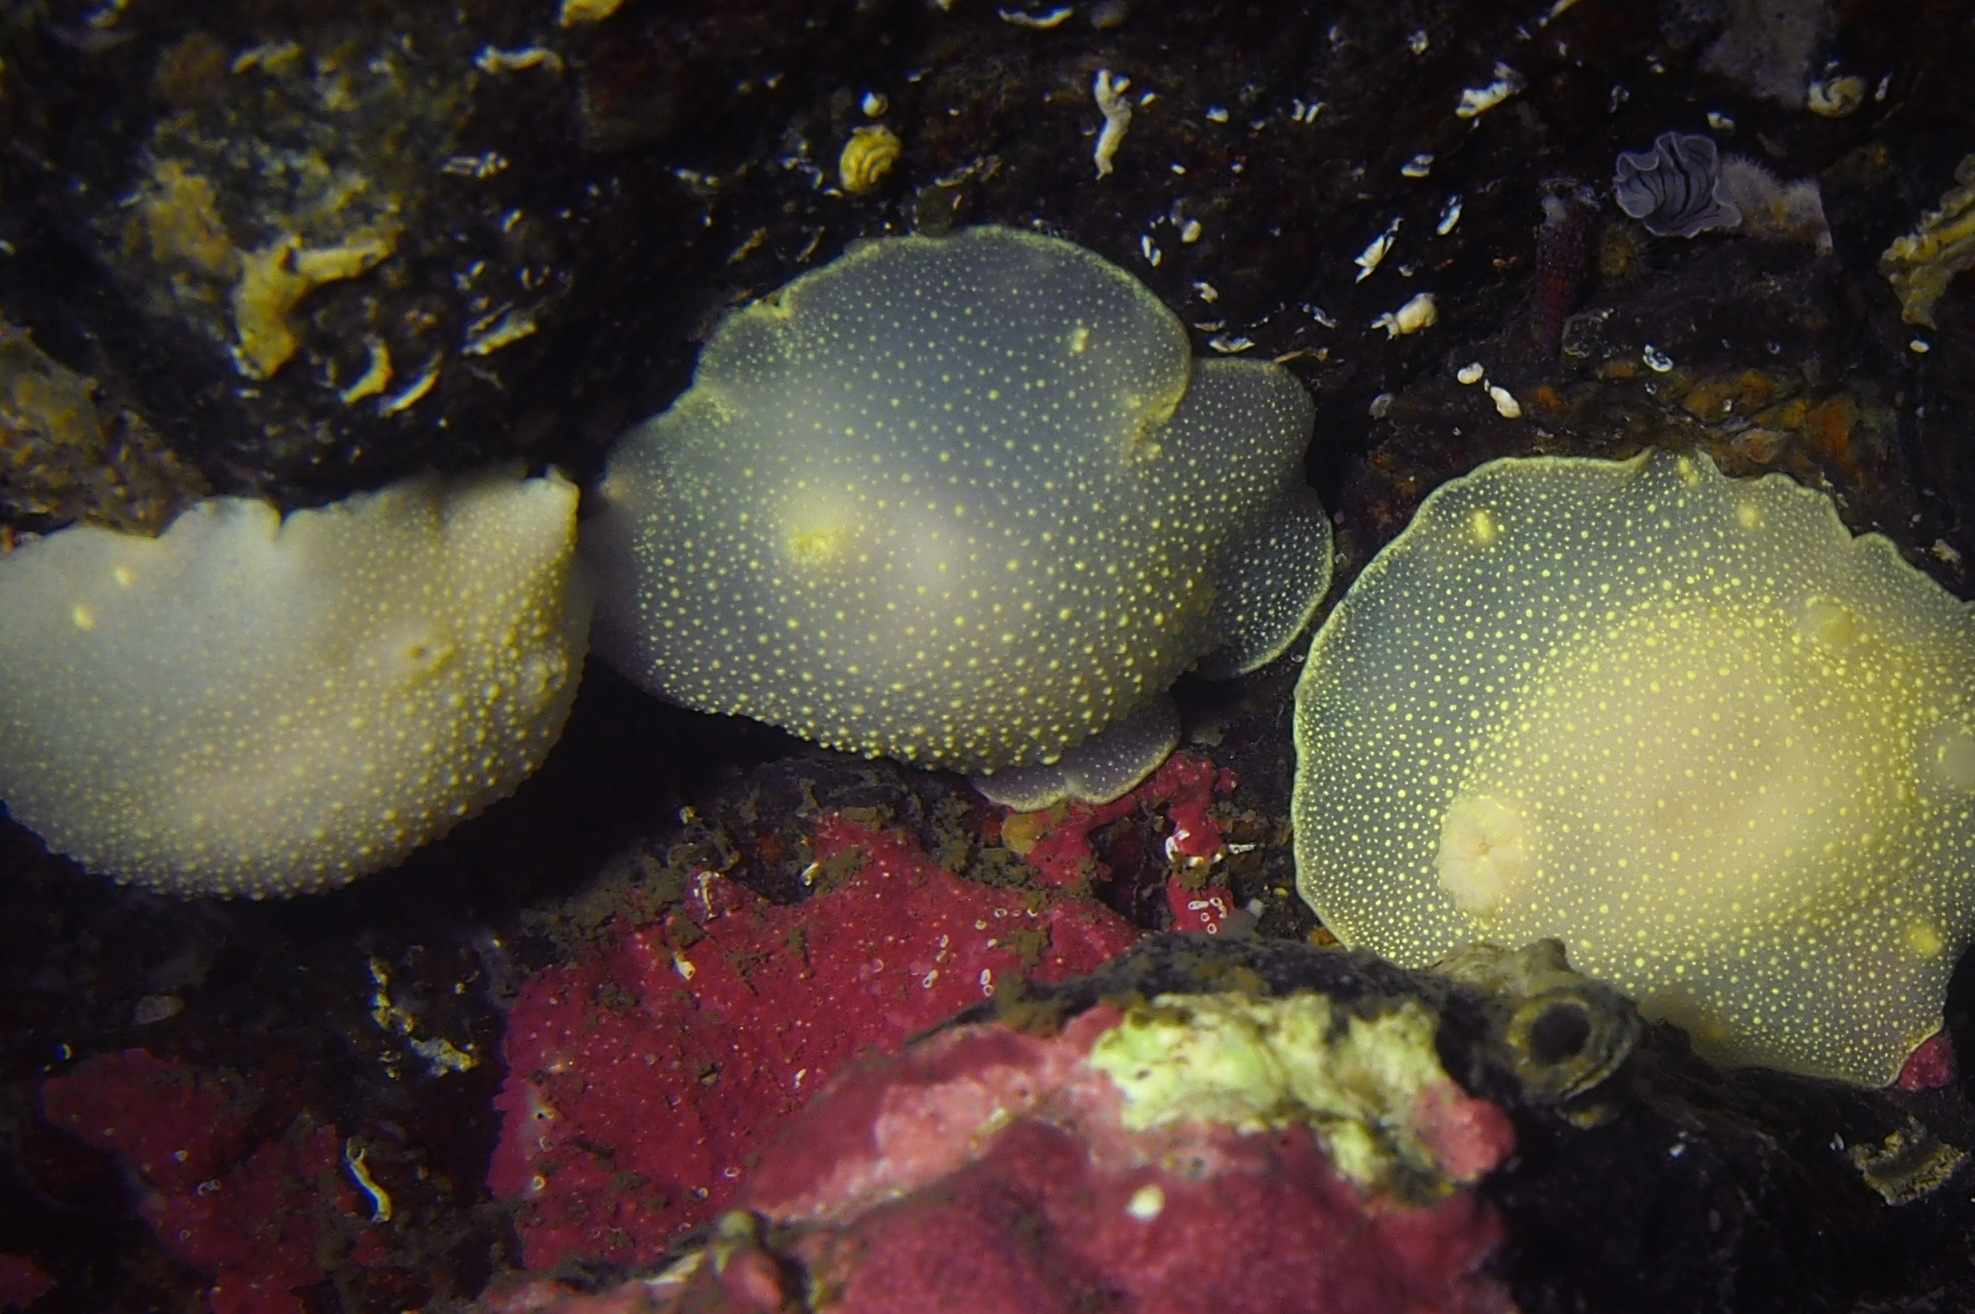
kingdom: Animalia
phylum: Mollusca
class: Gastropoda
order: Nudibranchia
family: Cadlinidae
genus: Cadlina
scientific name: Cadlina laevis
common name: White atlantic cadlina
